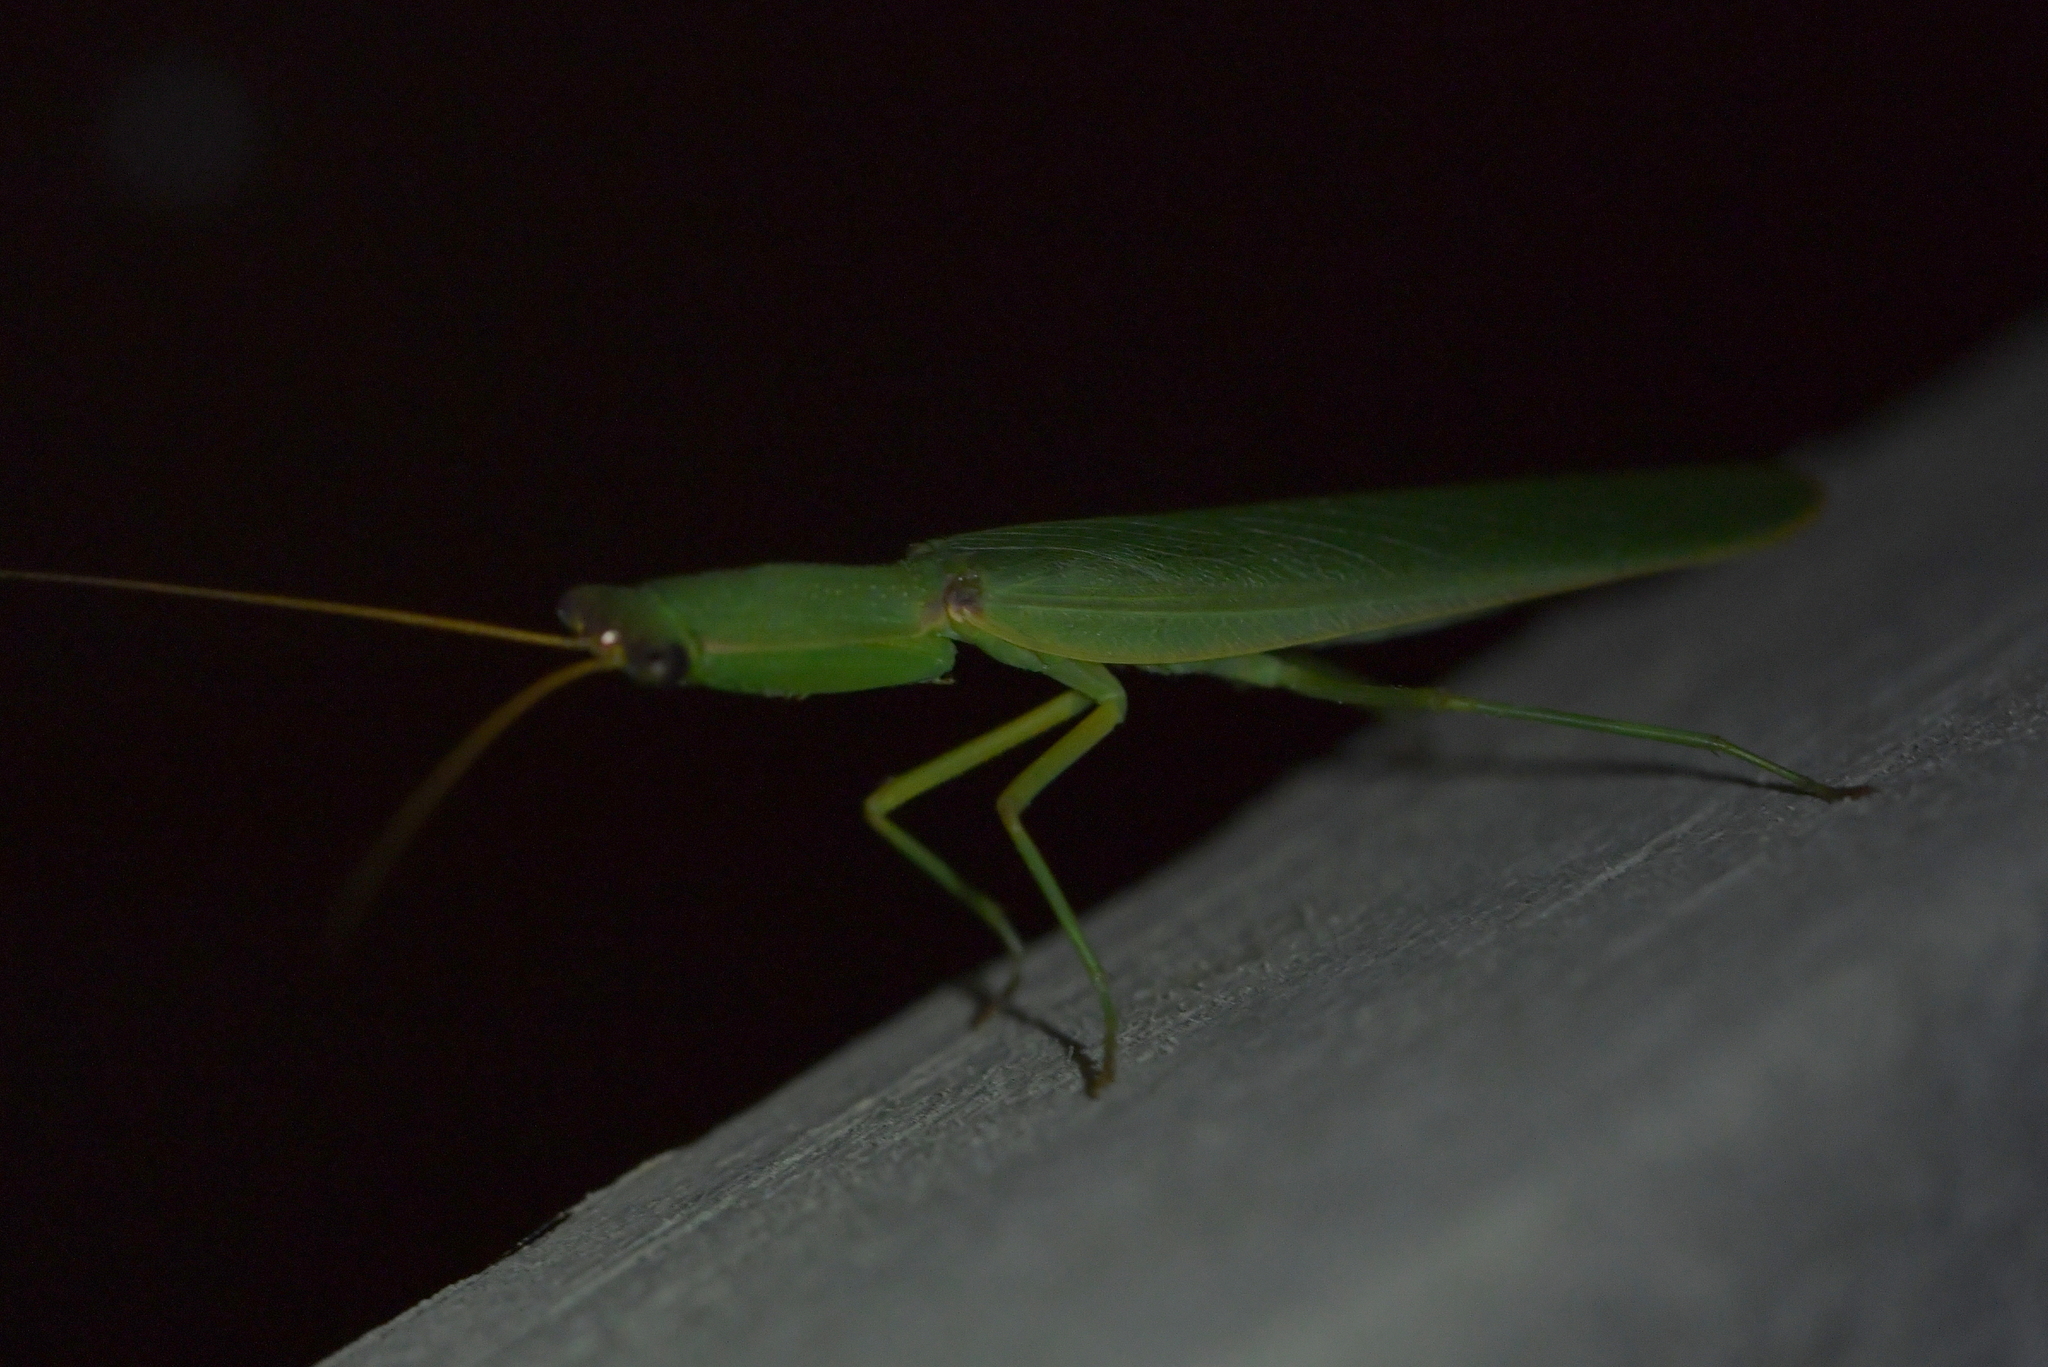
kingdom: Animalia
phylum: Arthropoda
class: Insecta
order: Mantodea
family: Mantidae
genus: Orthodera
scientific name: Orthodera novaezealandiae
